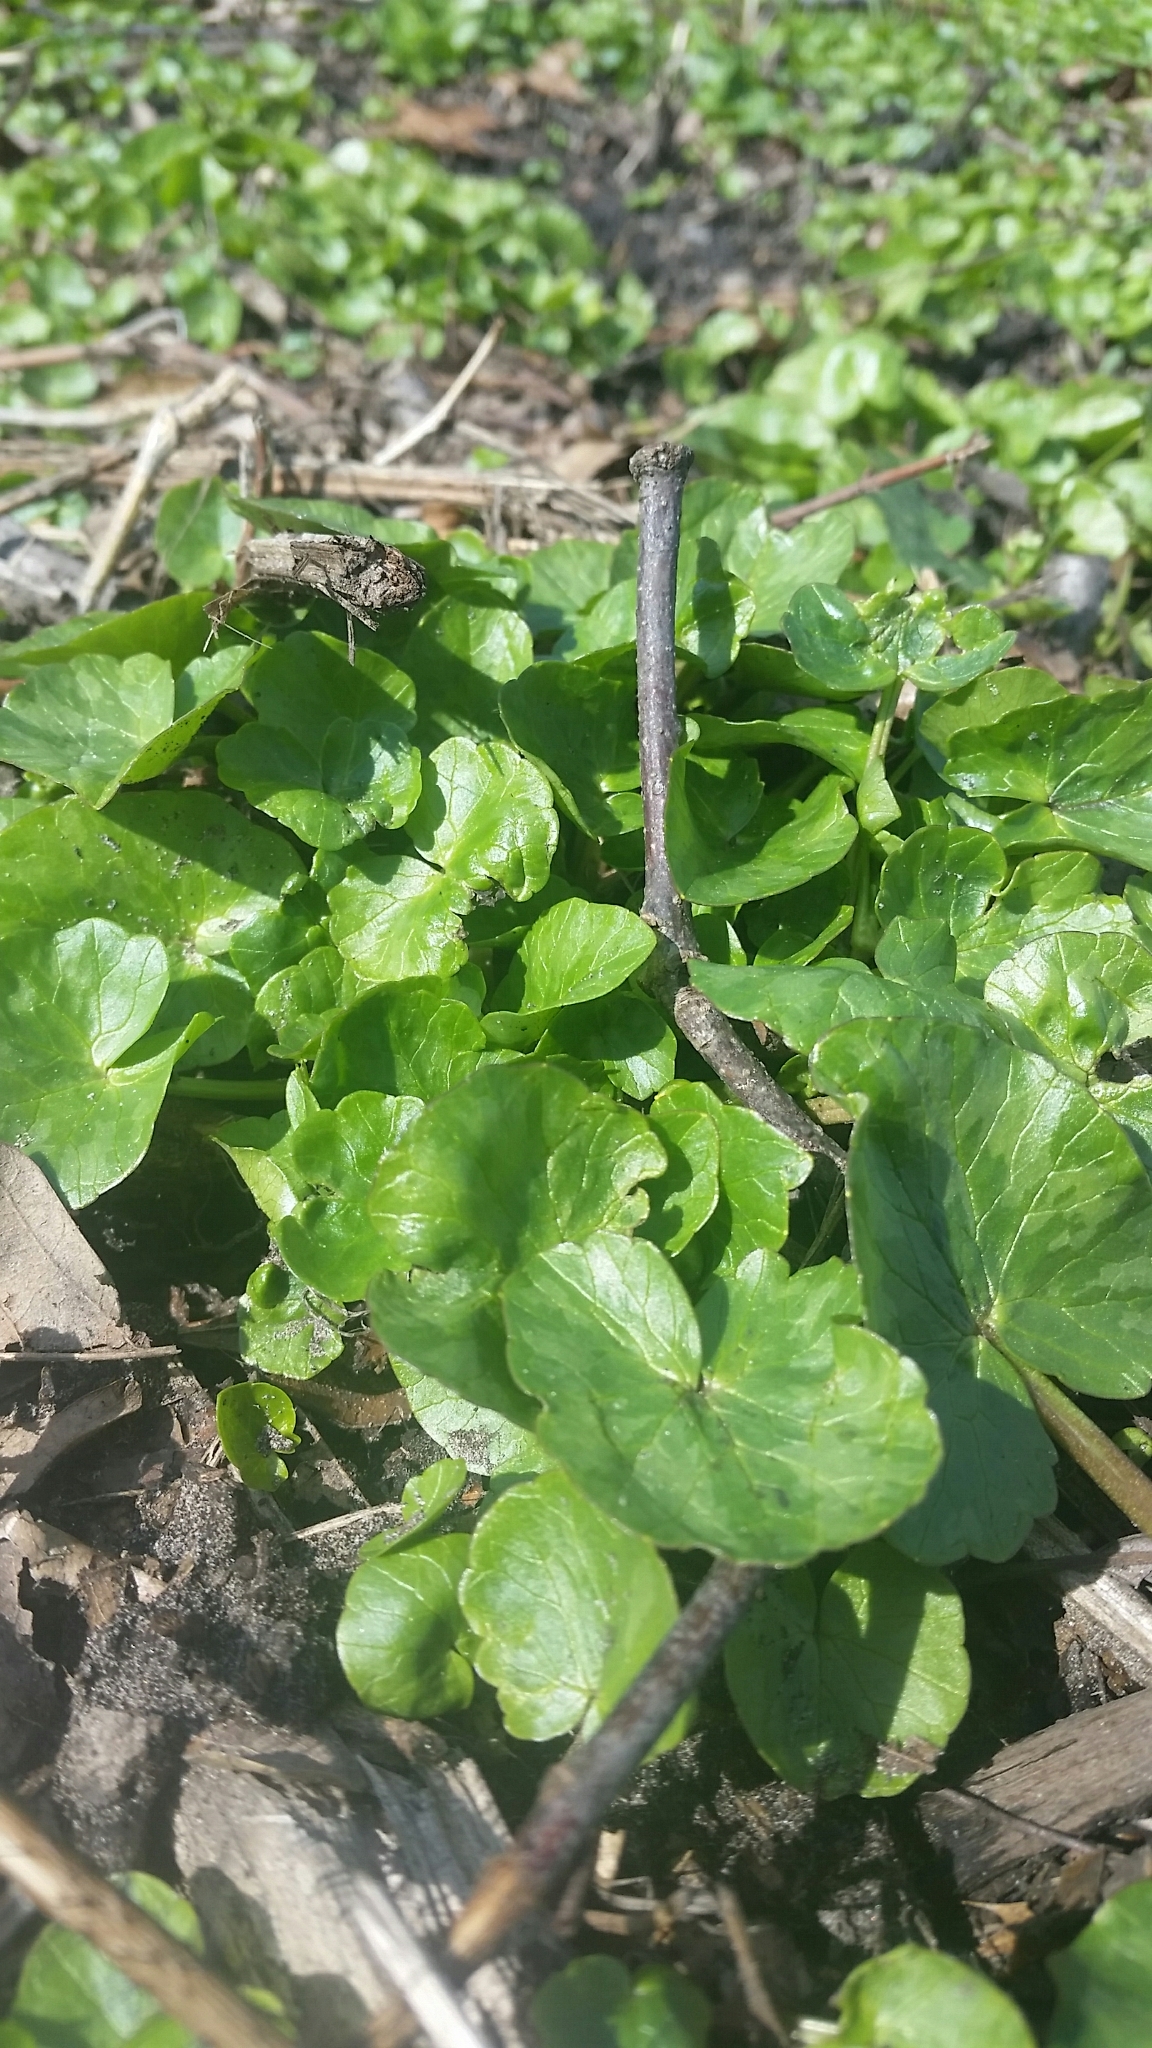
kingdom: Plantae
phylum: Tracheophyta
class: Magnoliopsida
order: Ranunculales
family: Ranunculaceae
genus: Ficaria
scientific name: Ficaria verna
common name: Lesser celandine
